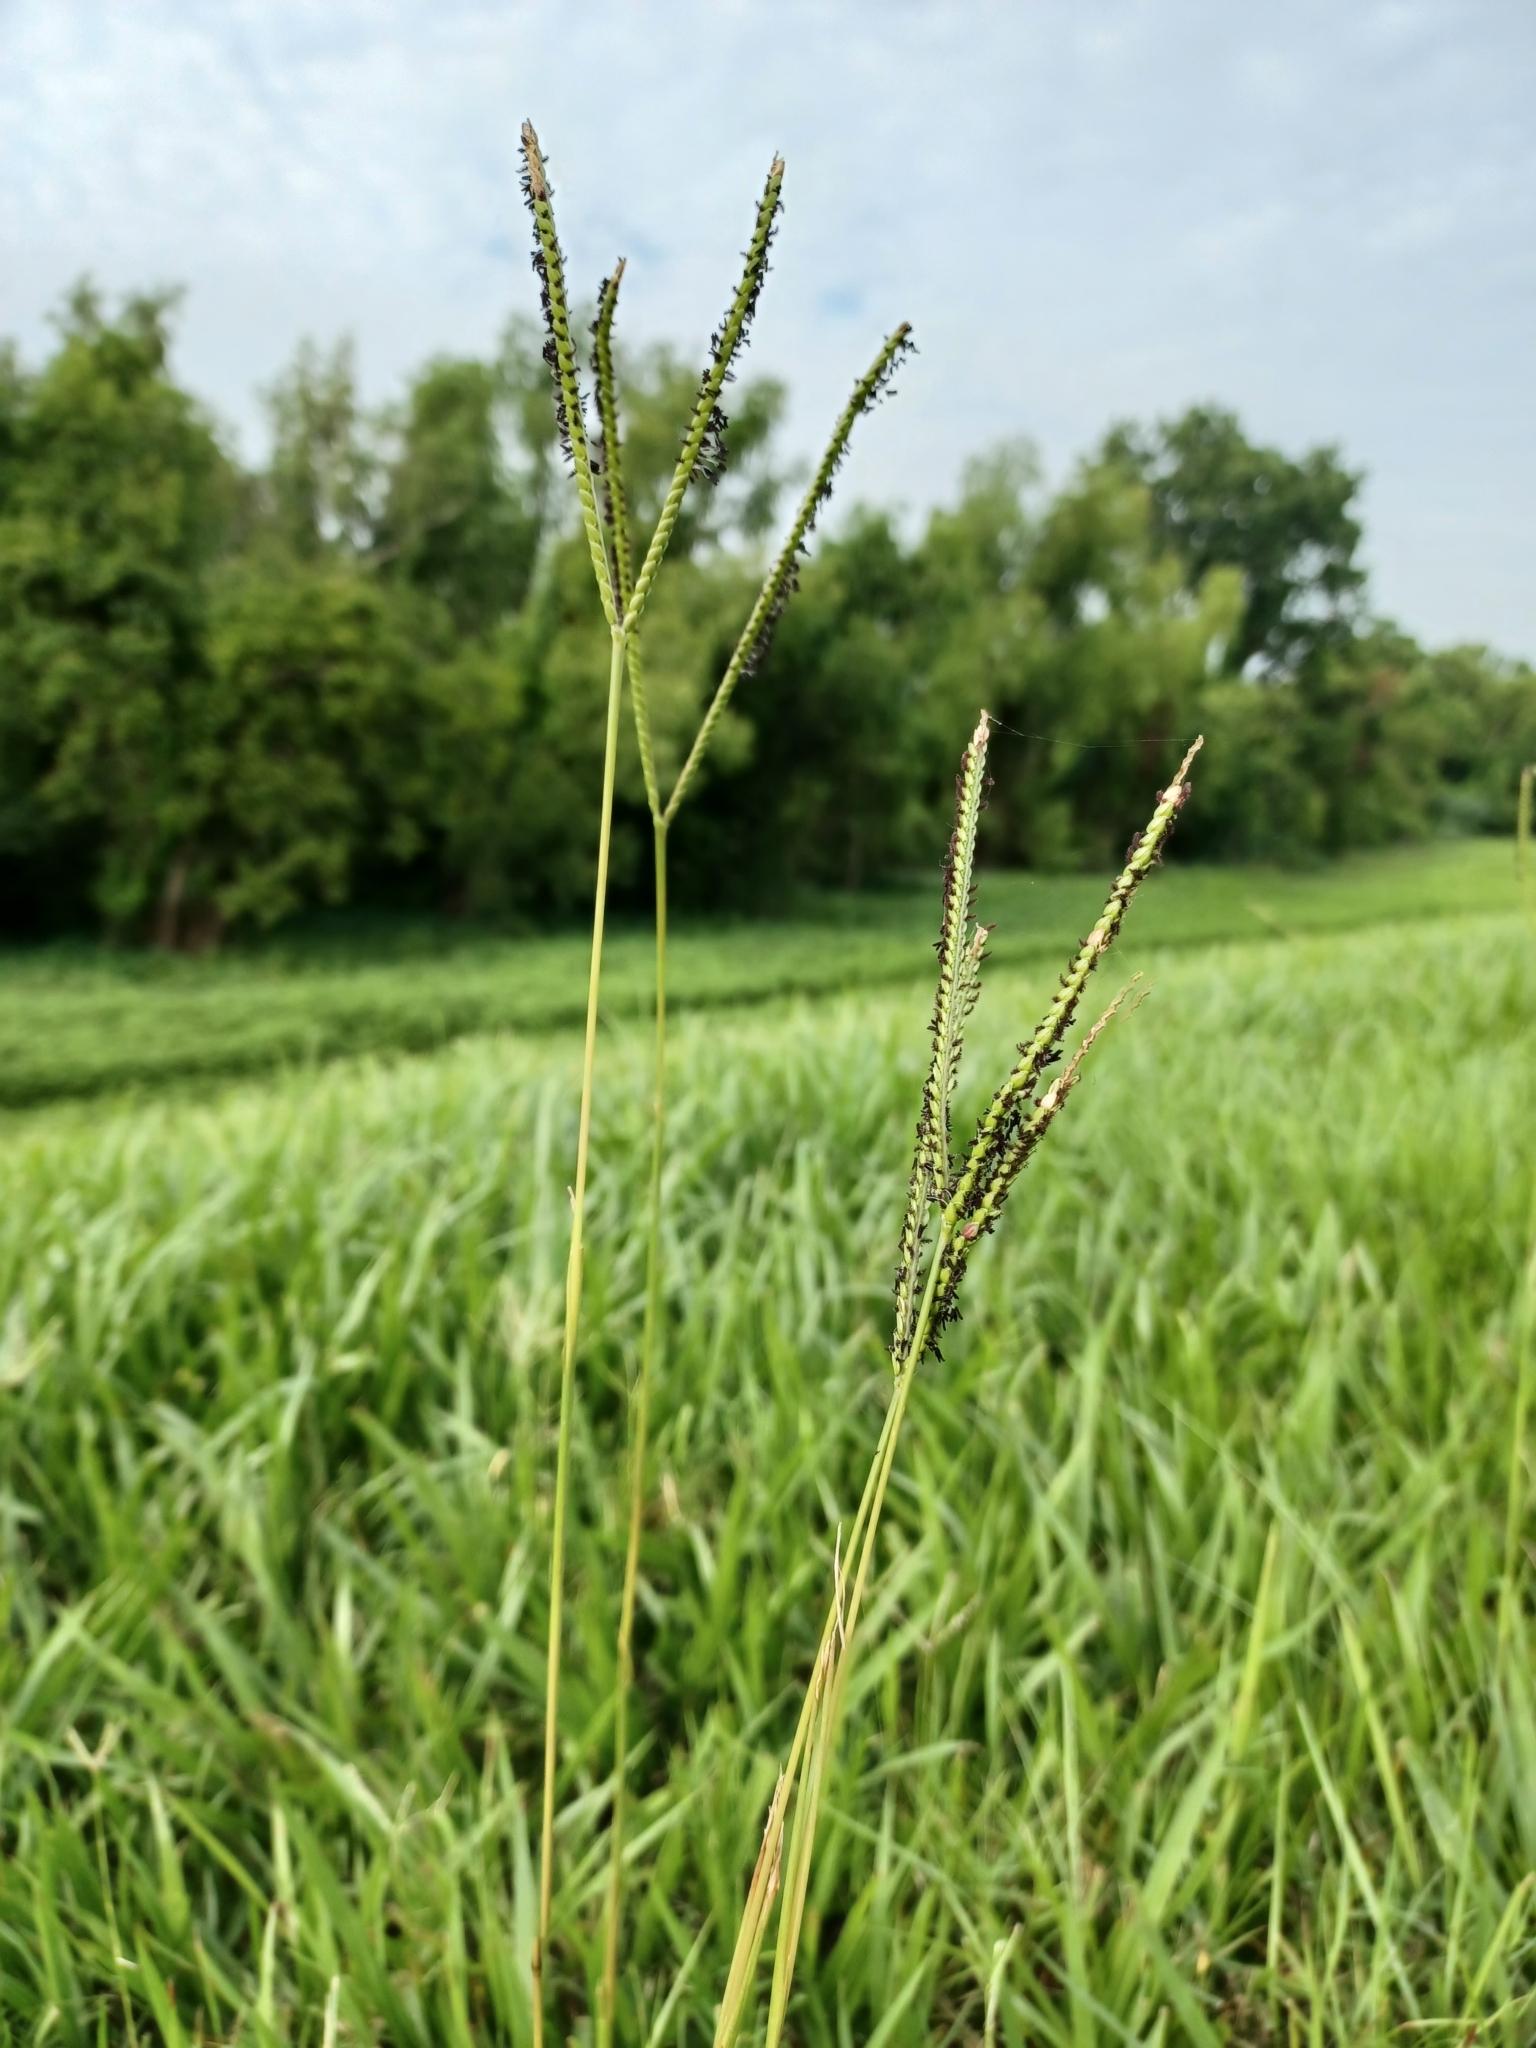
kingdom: Plantae
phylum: Tracheophyta
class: Liliopsida
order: Poales
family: Poaceae
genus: Paspalum
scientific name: Paspalum notatum
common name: Bahiagrass
